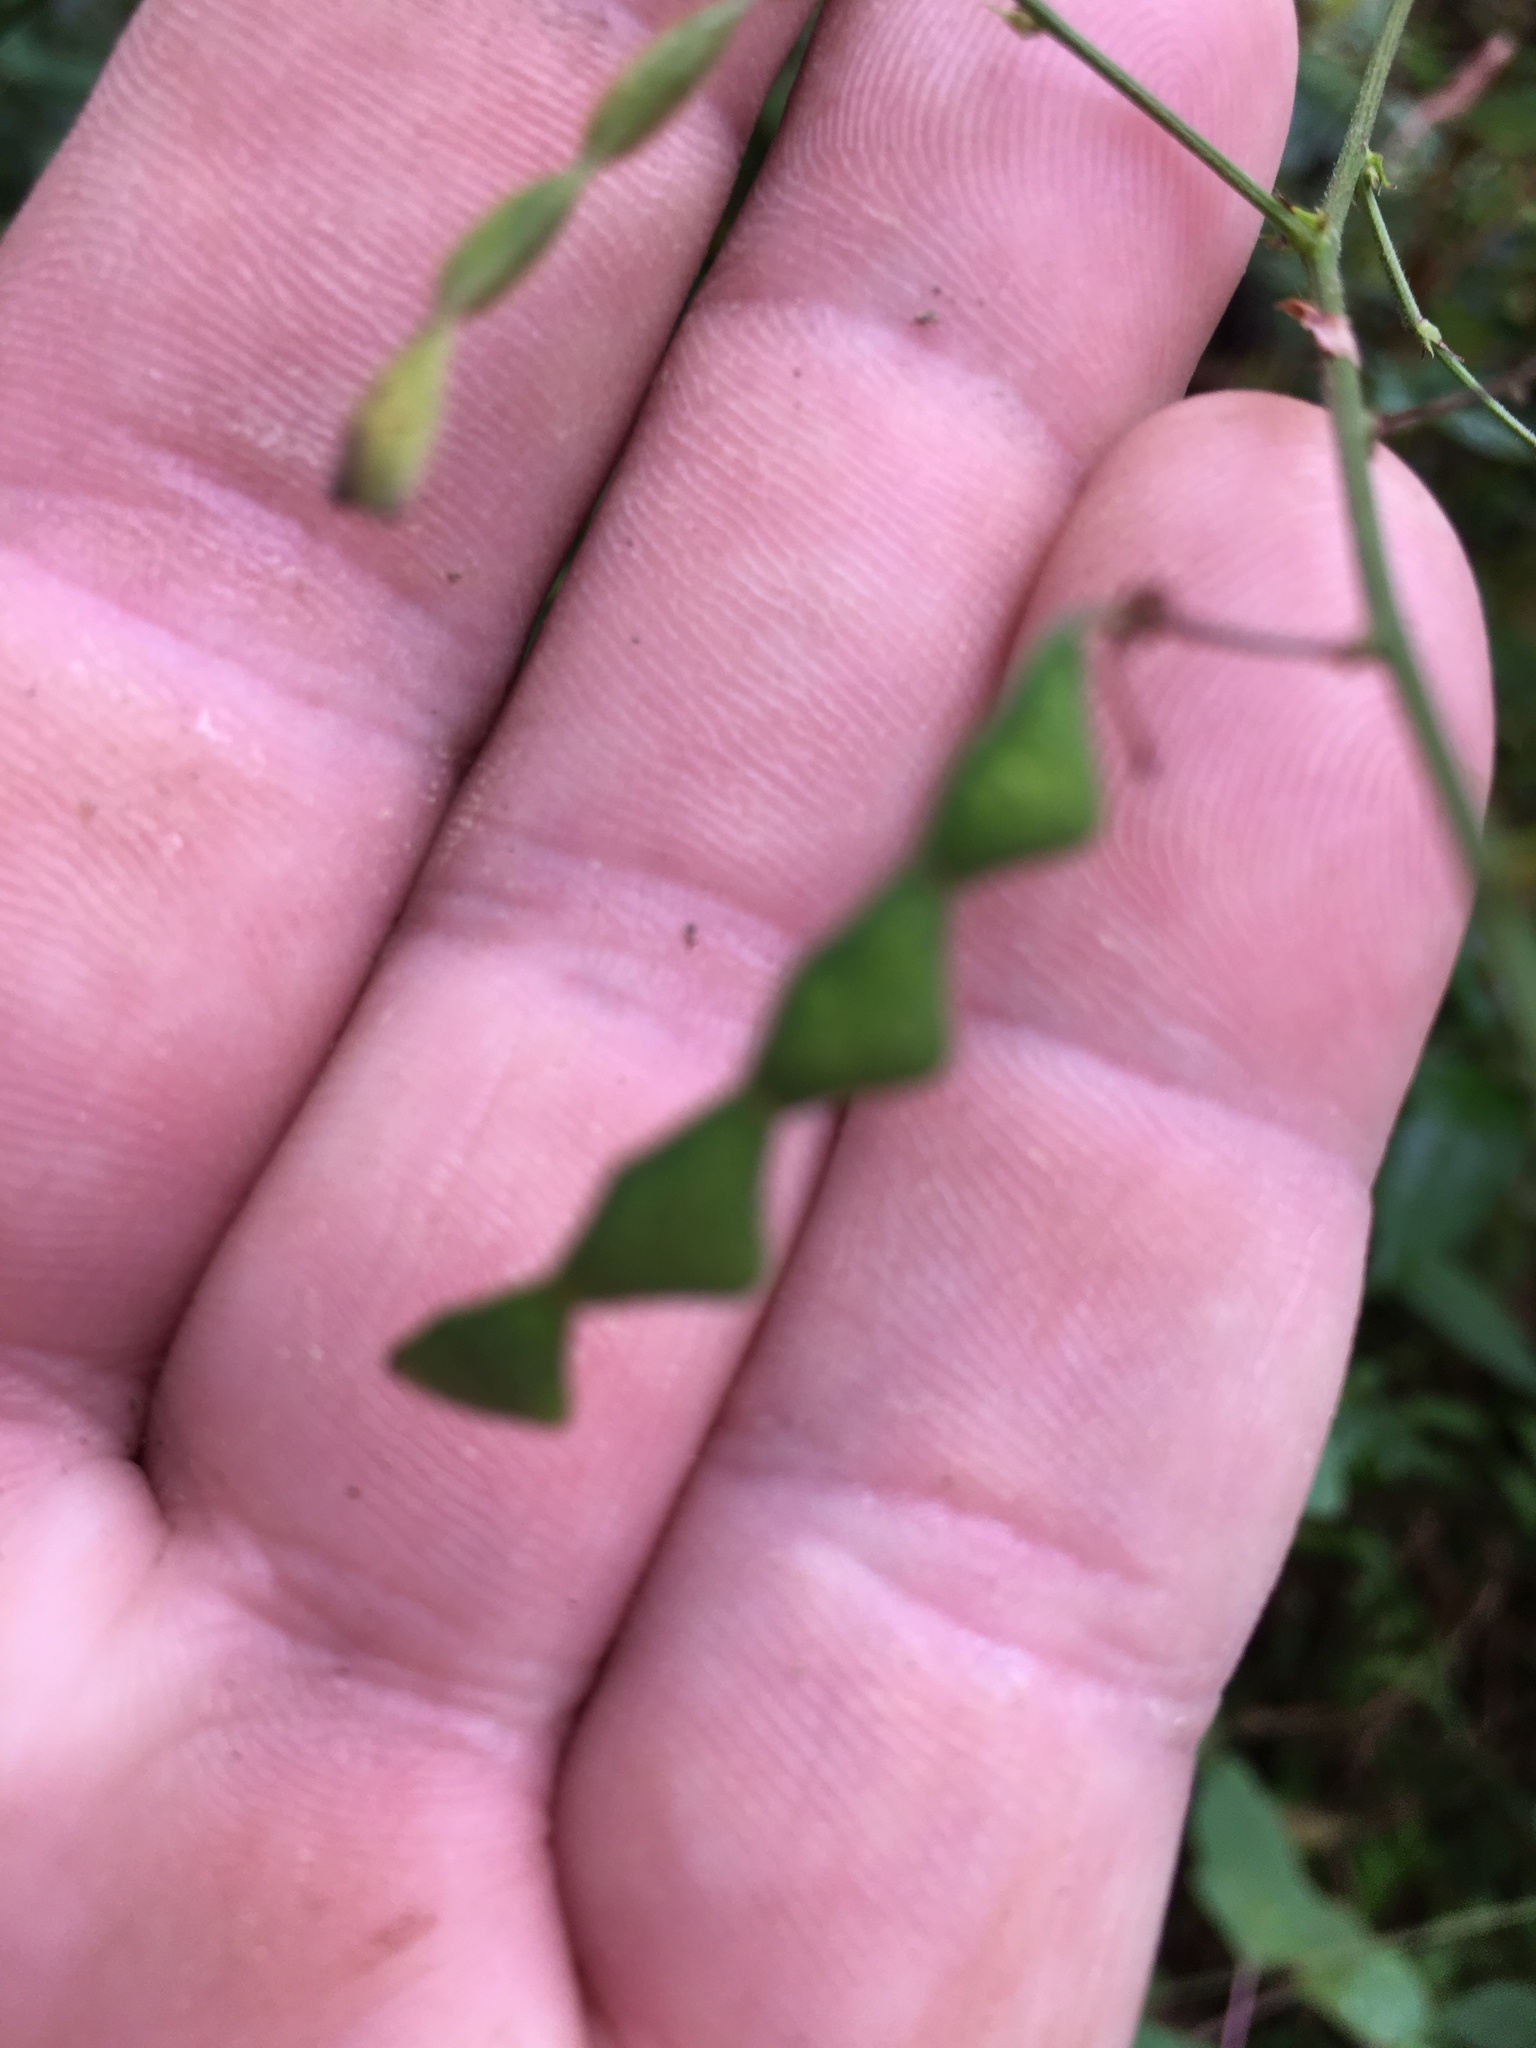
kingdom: Plantae
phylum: Tracheophyta
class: Magnoliopsida
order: Fabales
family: Fabaceae
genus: Desmodium
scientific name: Desmodium paniculatum
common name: Panicled tick-clover
